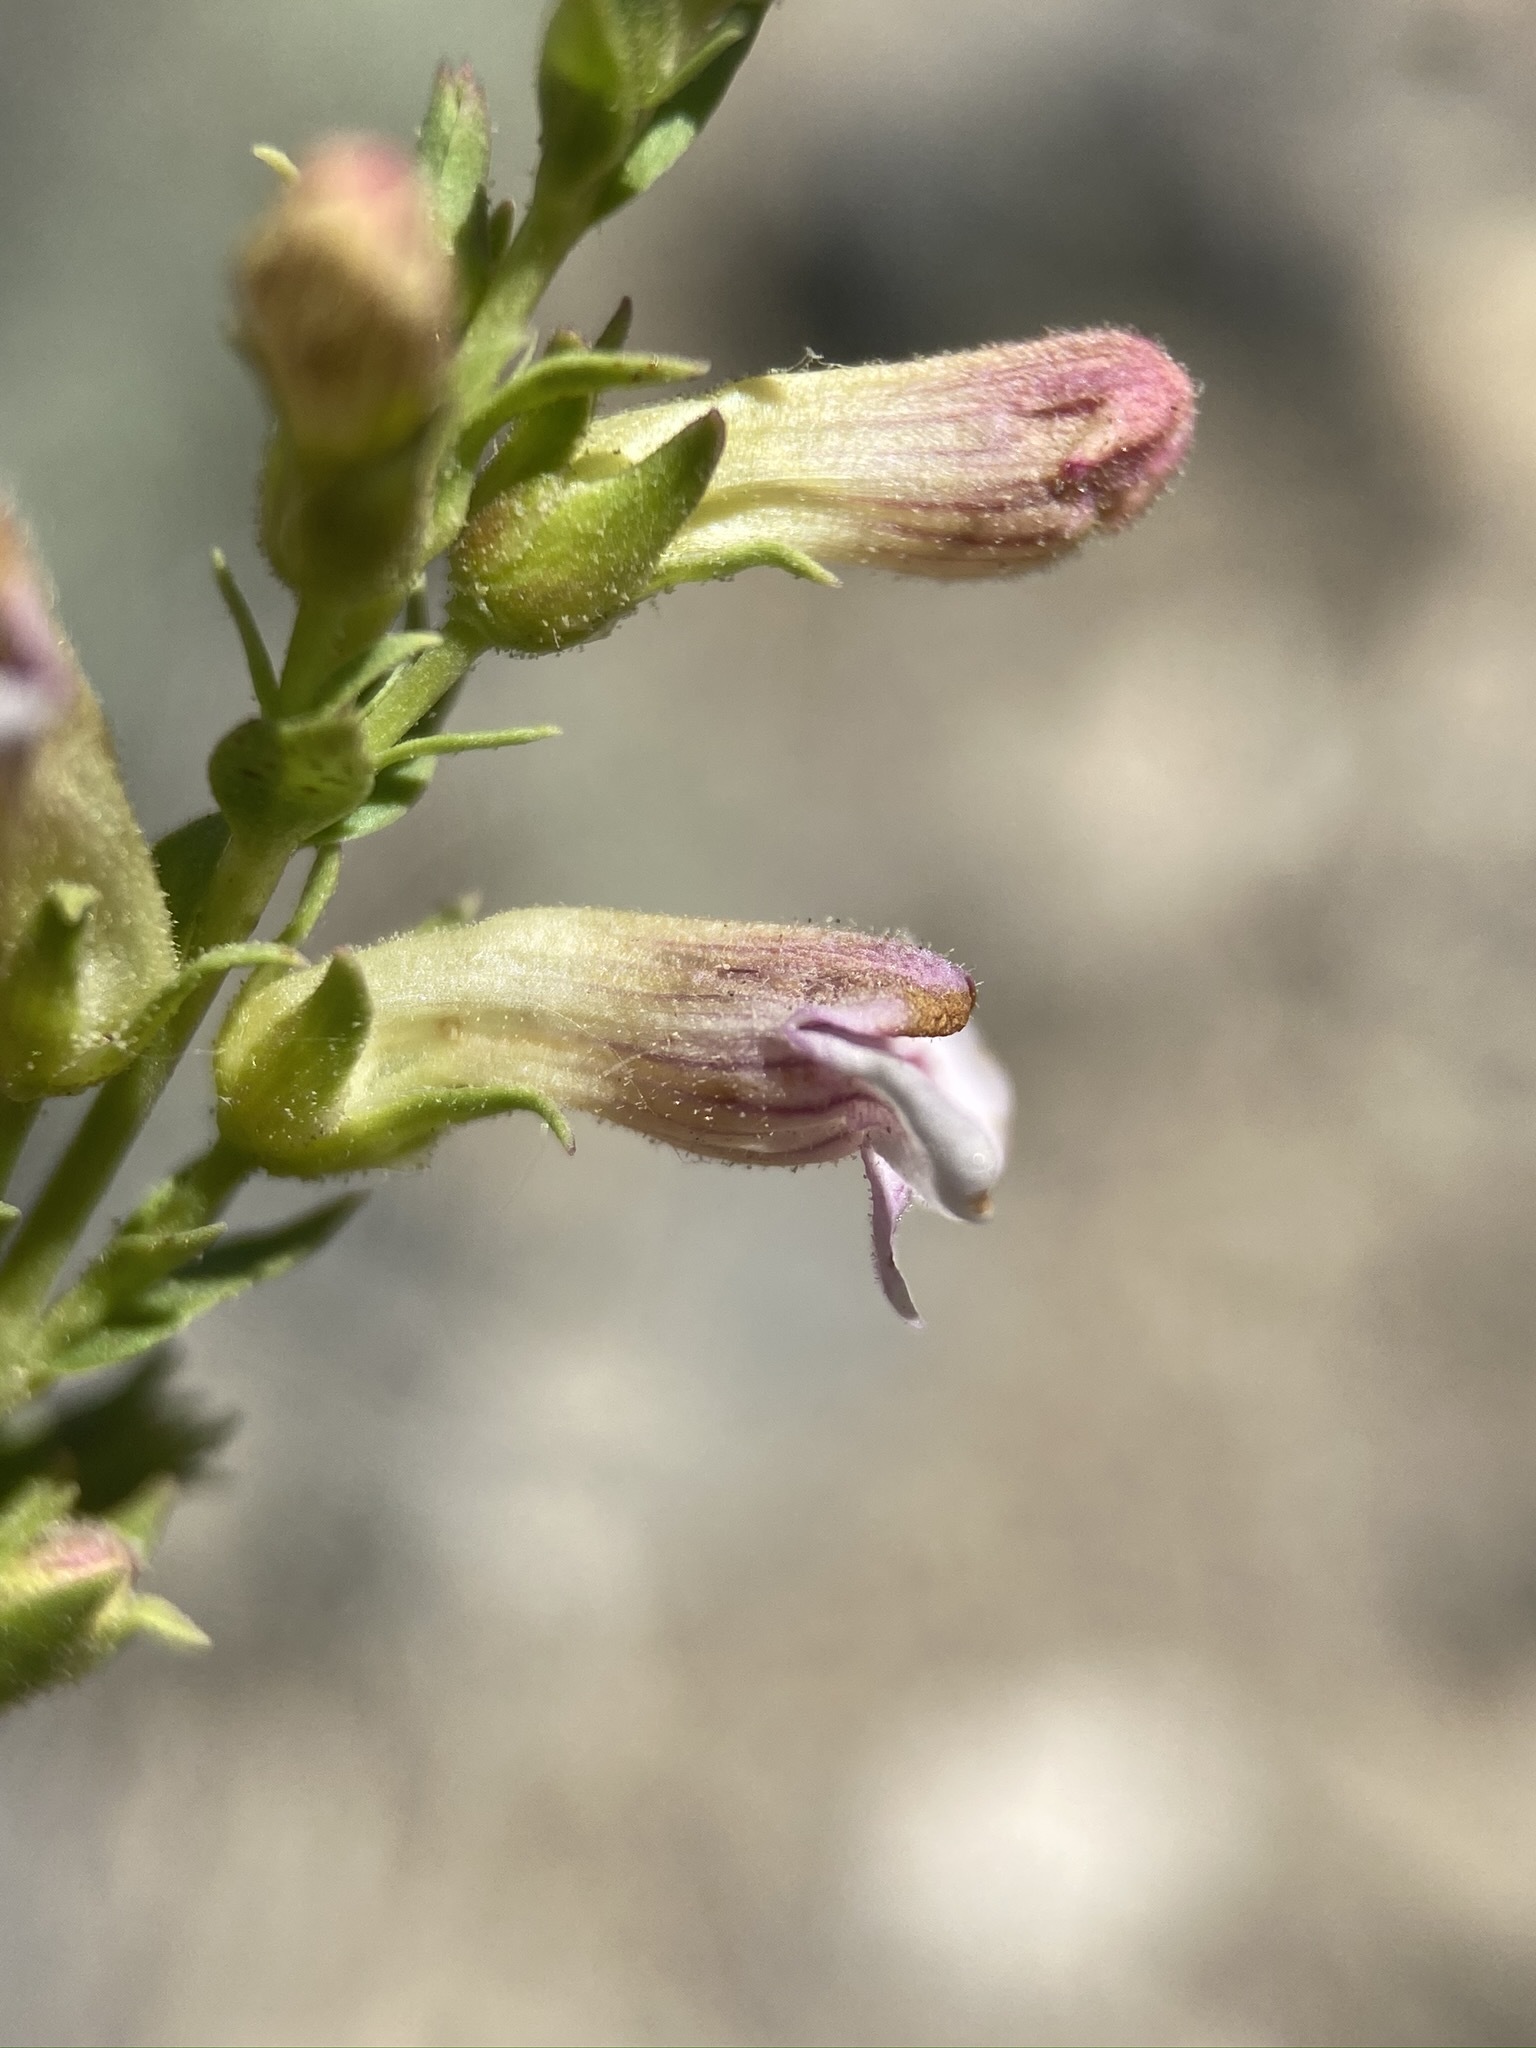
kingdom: Plantae
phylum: Tracheophyta
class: Magnoliopsida
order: Lamiales
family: Plantaginaceae
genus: Penstemon
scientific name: Penstemon deustus
